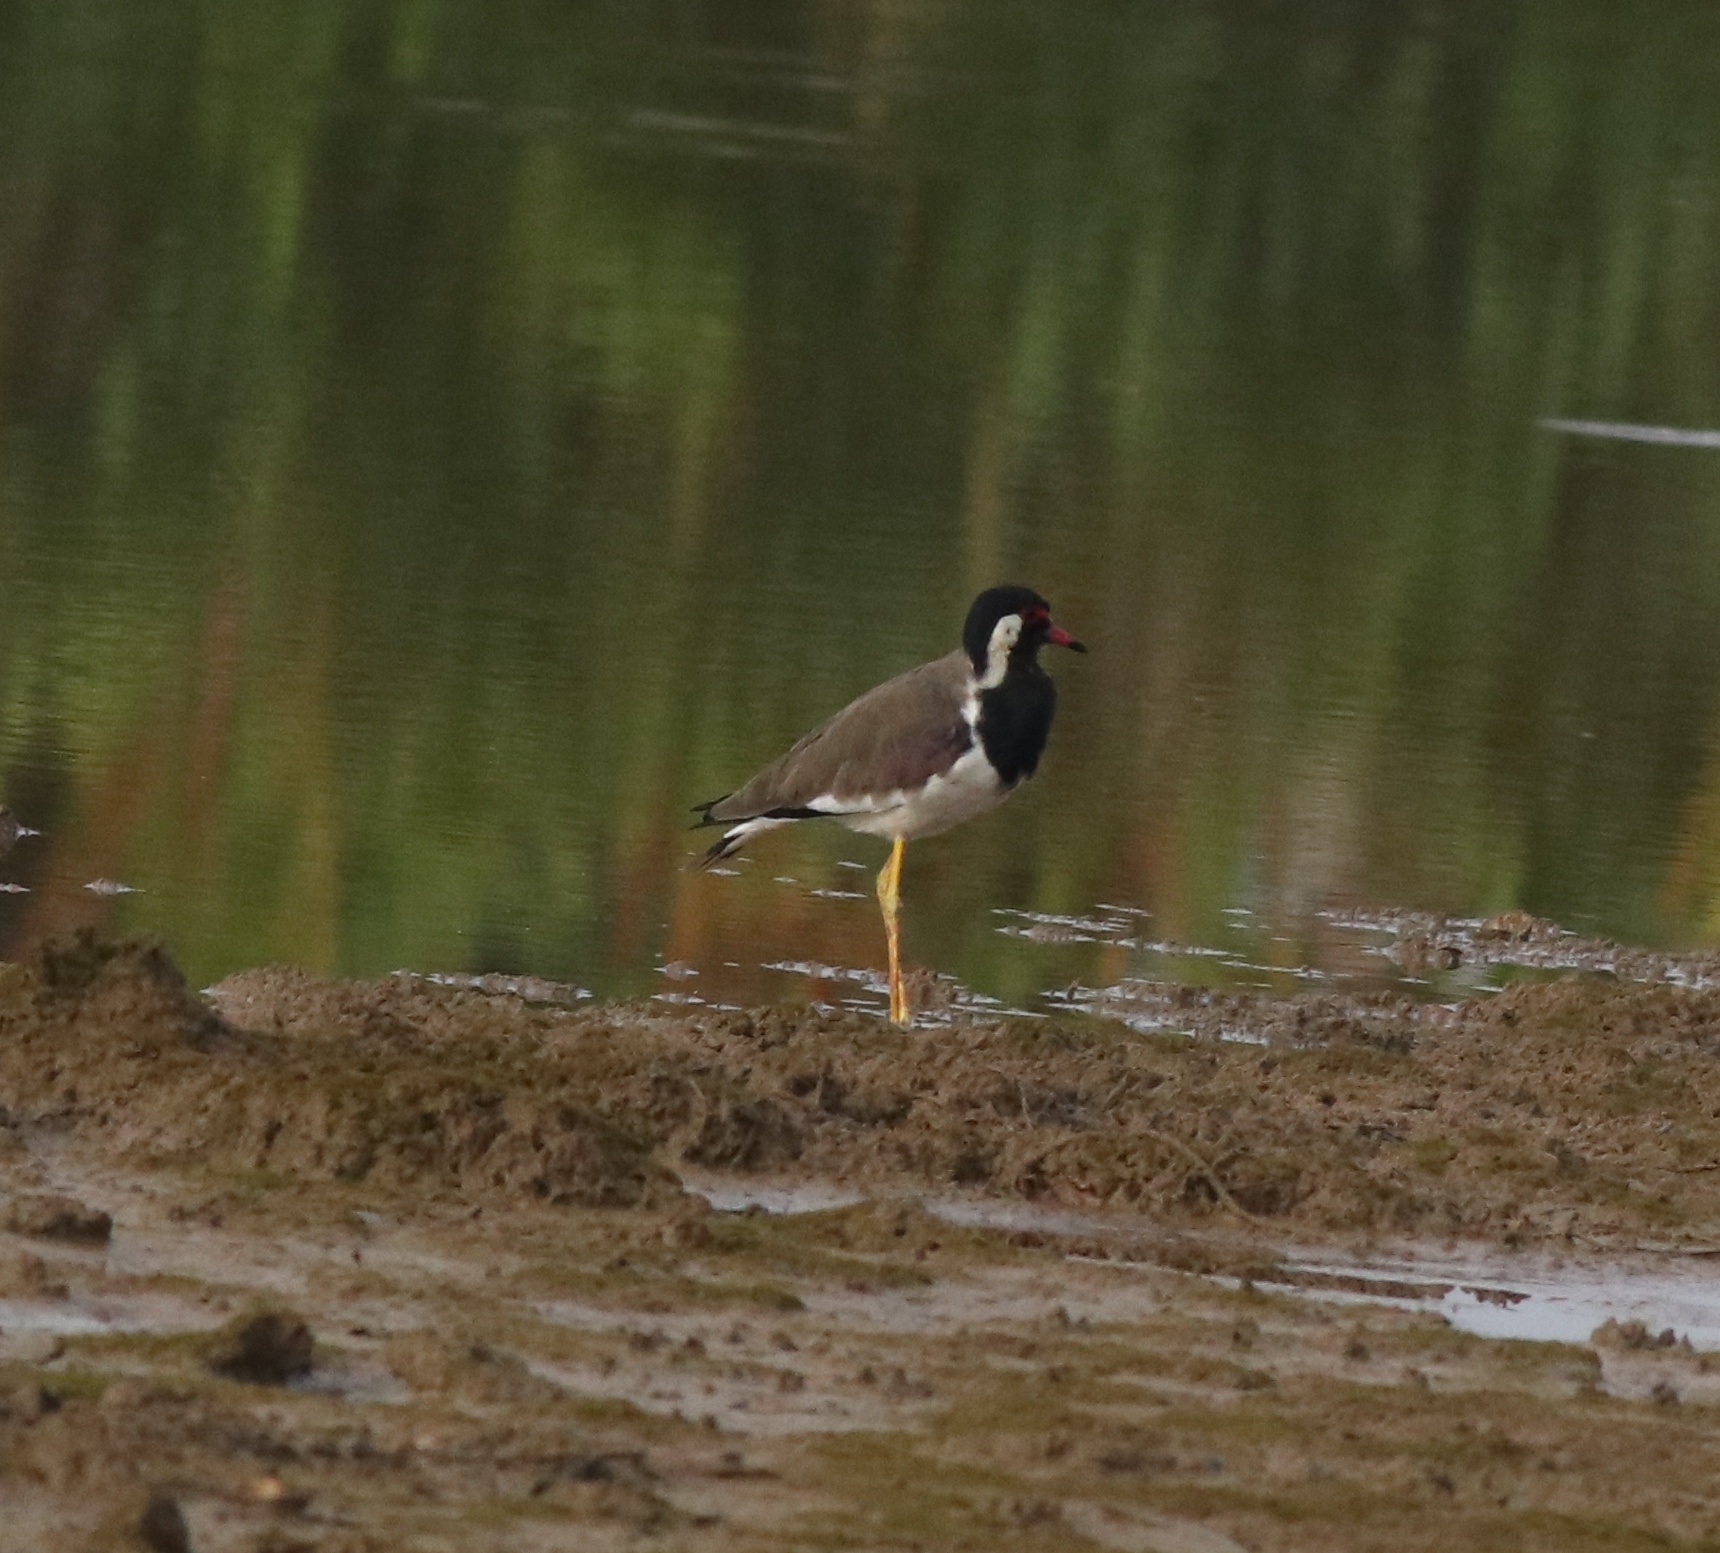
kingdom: Animalia
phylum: Chordata
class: Aves
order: Charadriiformes
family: Charadriidae
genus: Vanellus
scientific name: Vanellus indicus
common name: Red-wattled lapwing
